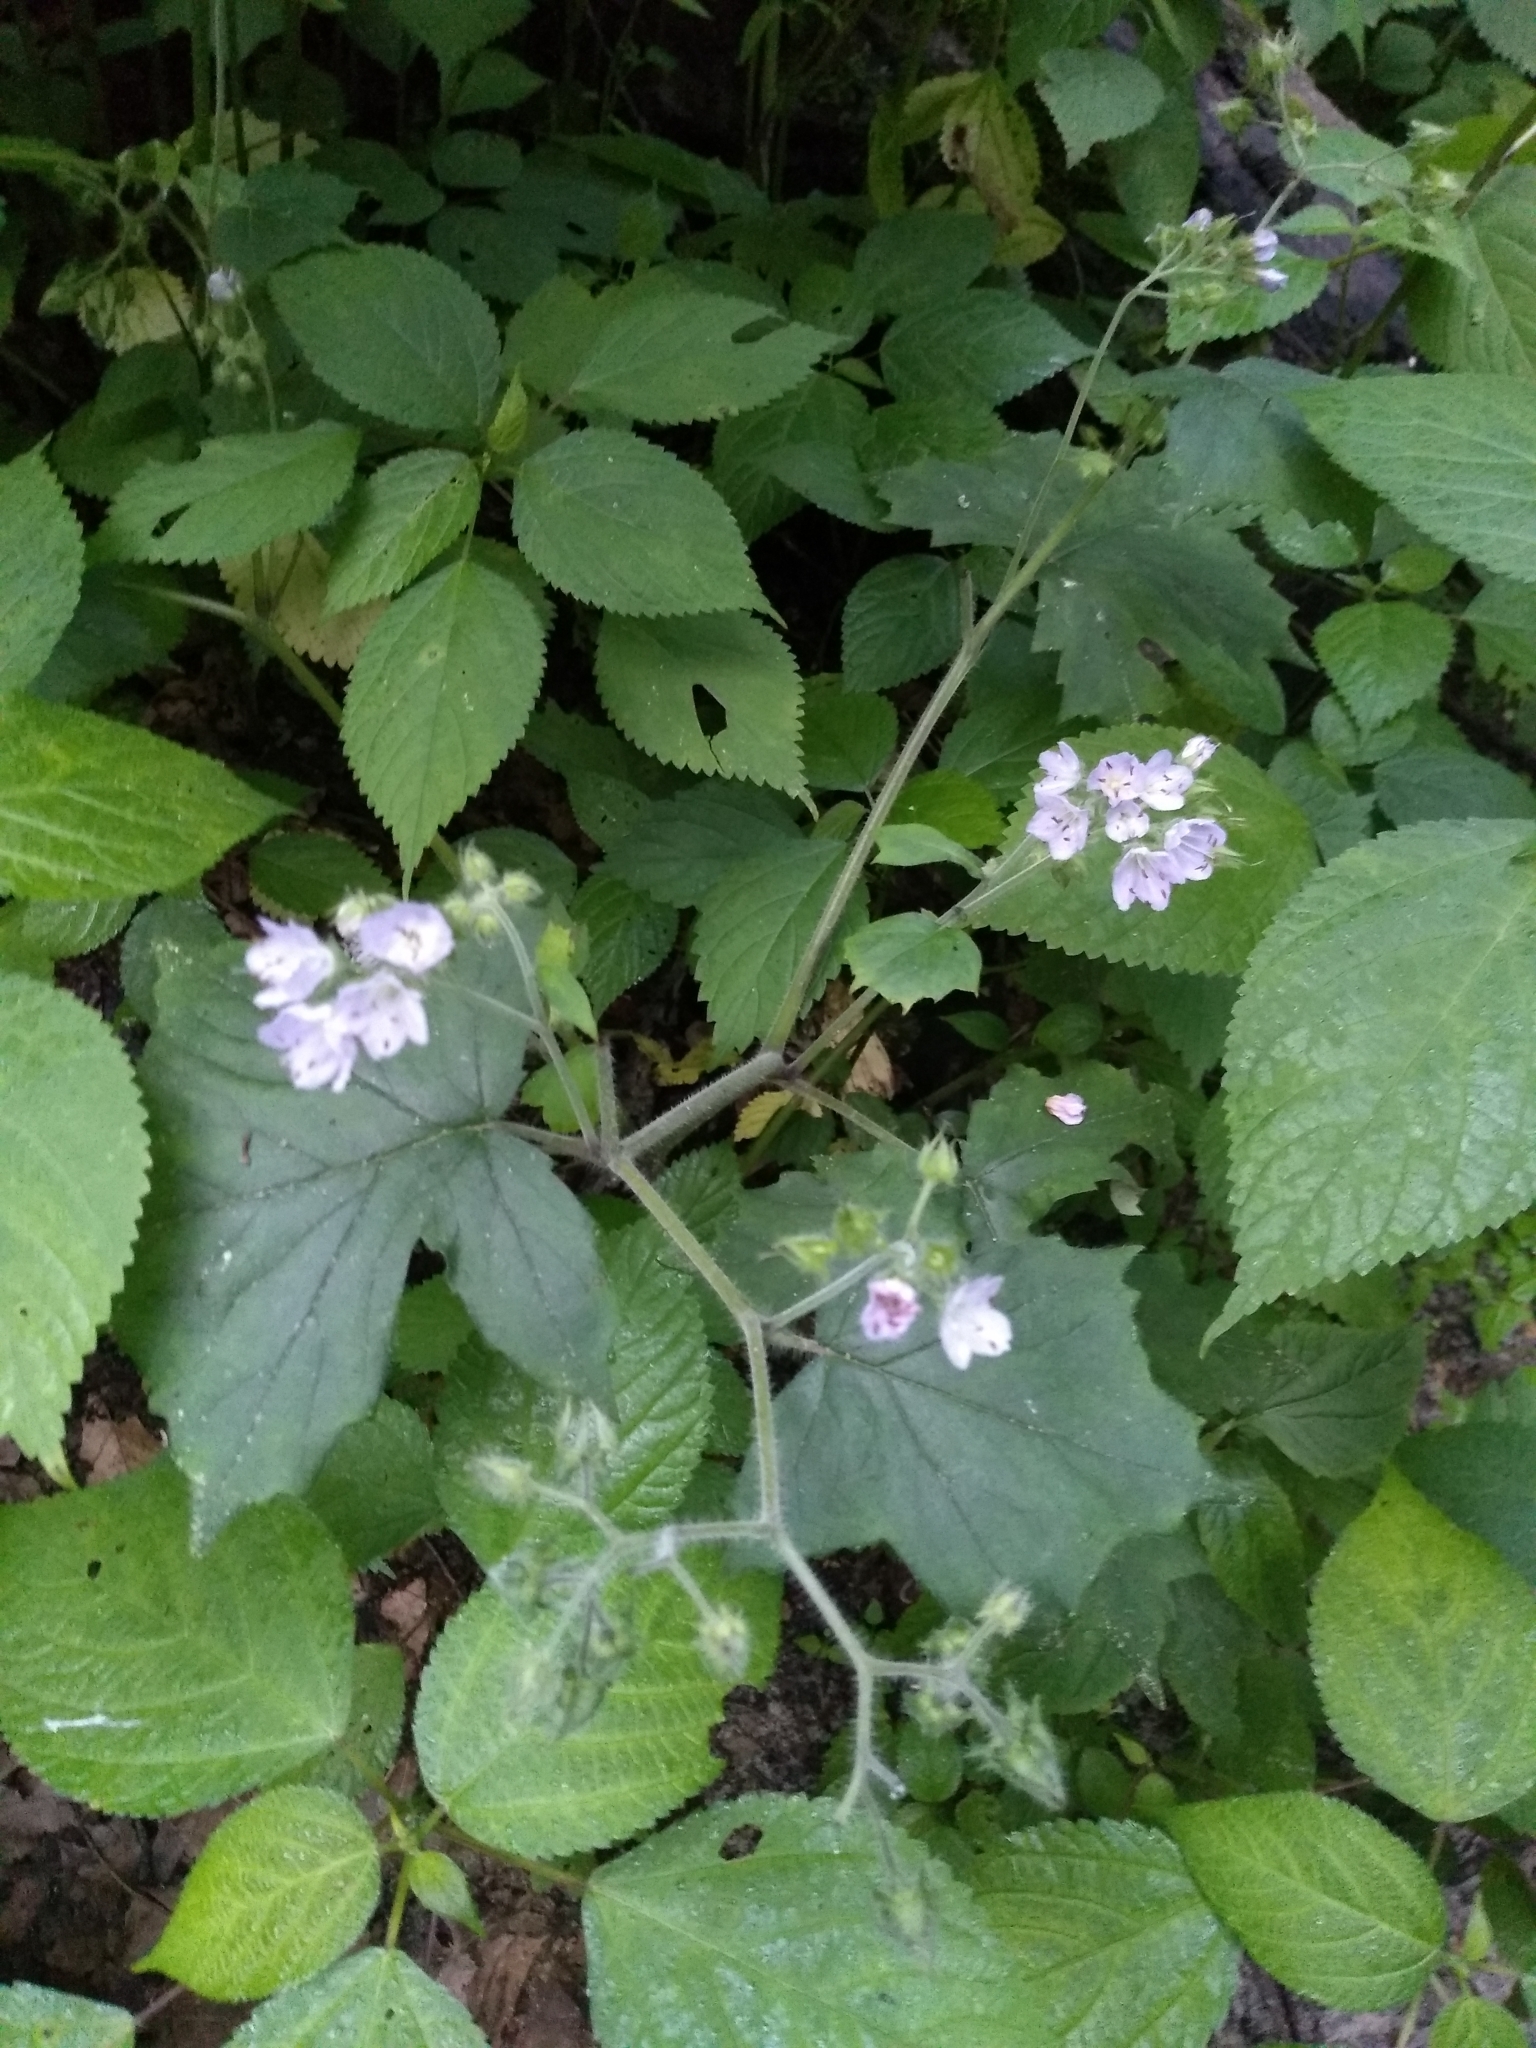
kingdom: Plantae
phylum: Tracheophyta
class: Magnoliopsida
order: Boraginales
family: Hydrophyllaceae
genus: Hydrophyllum
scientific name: Hydrophyllum appendiculatum
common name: Appendaged waterleaf
